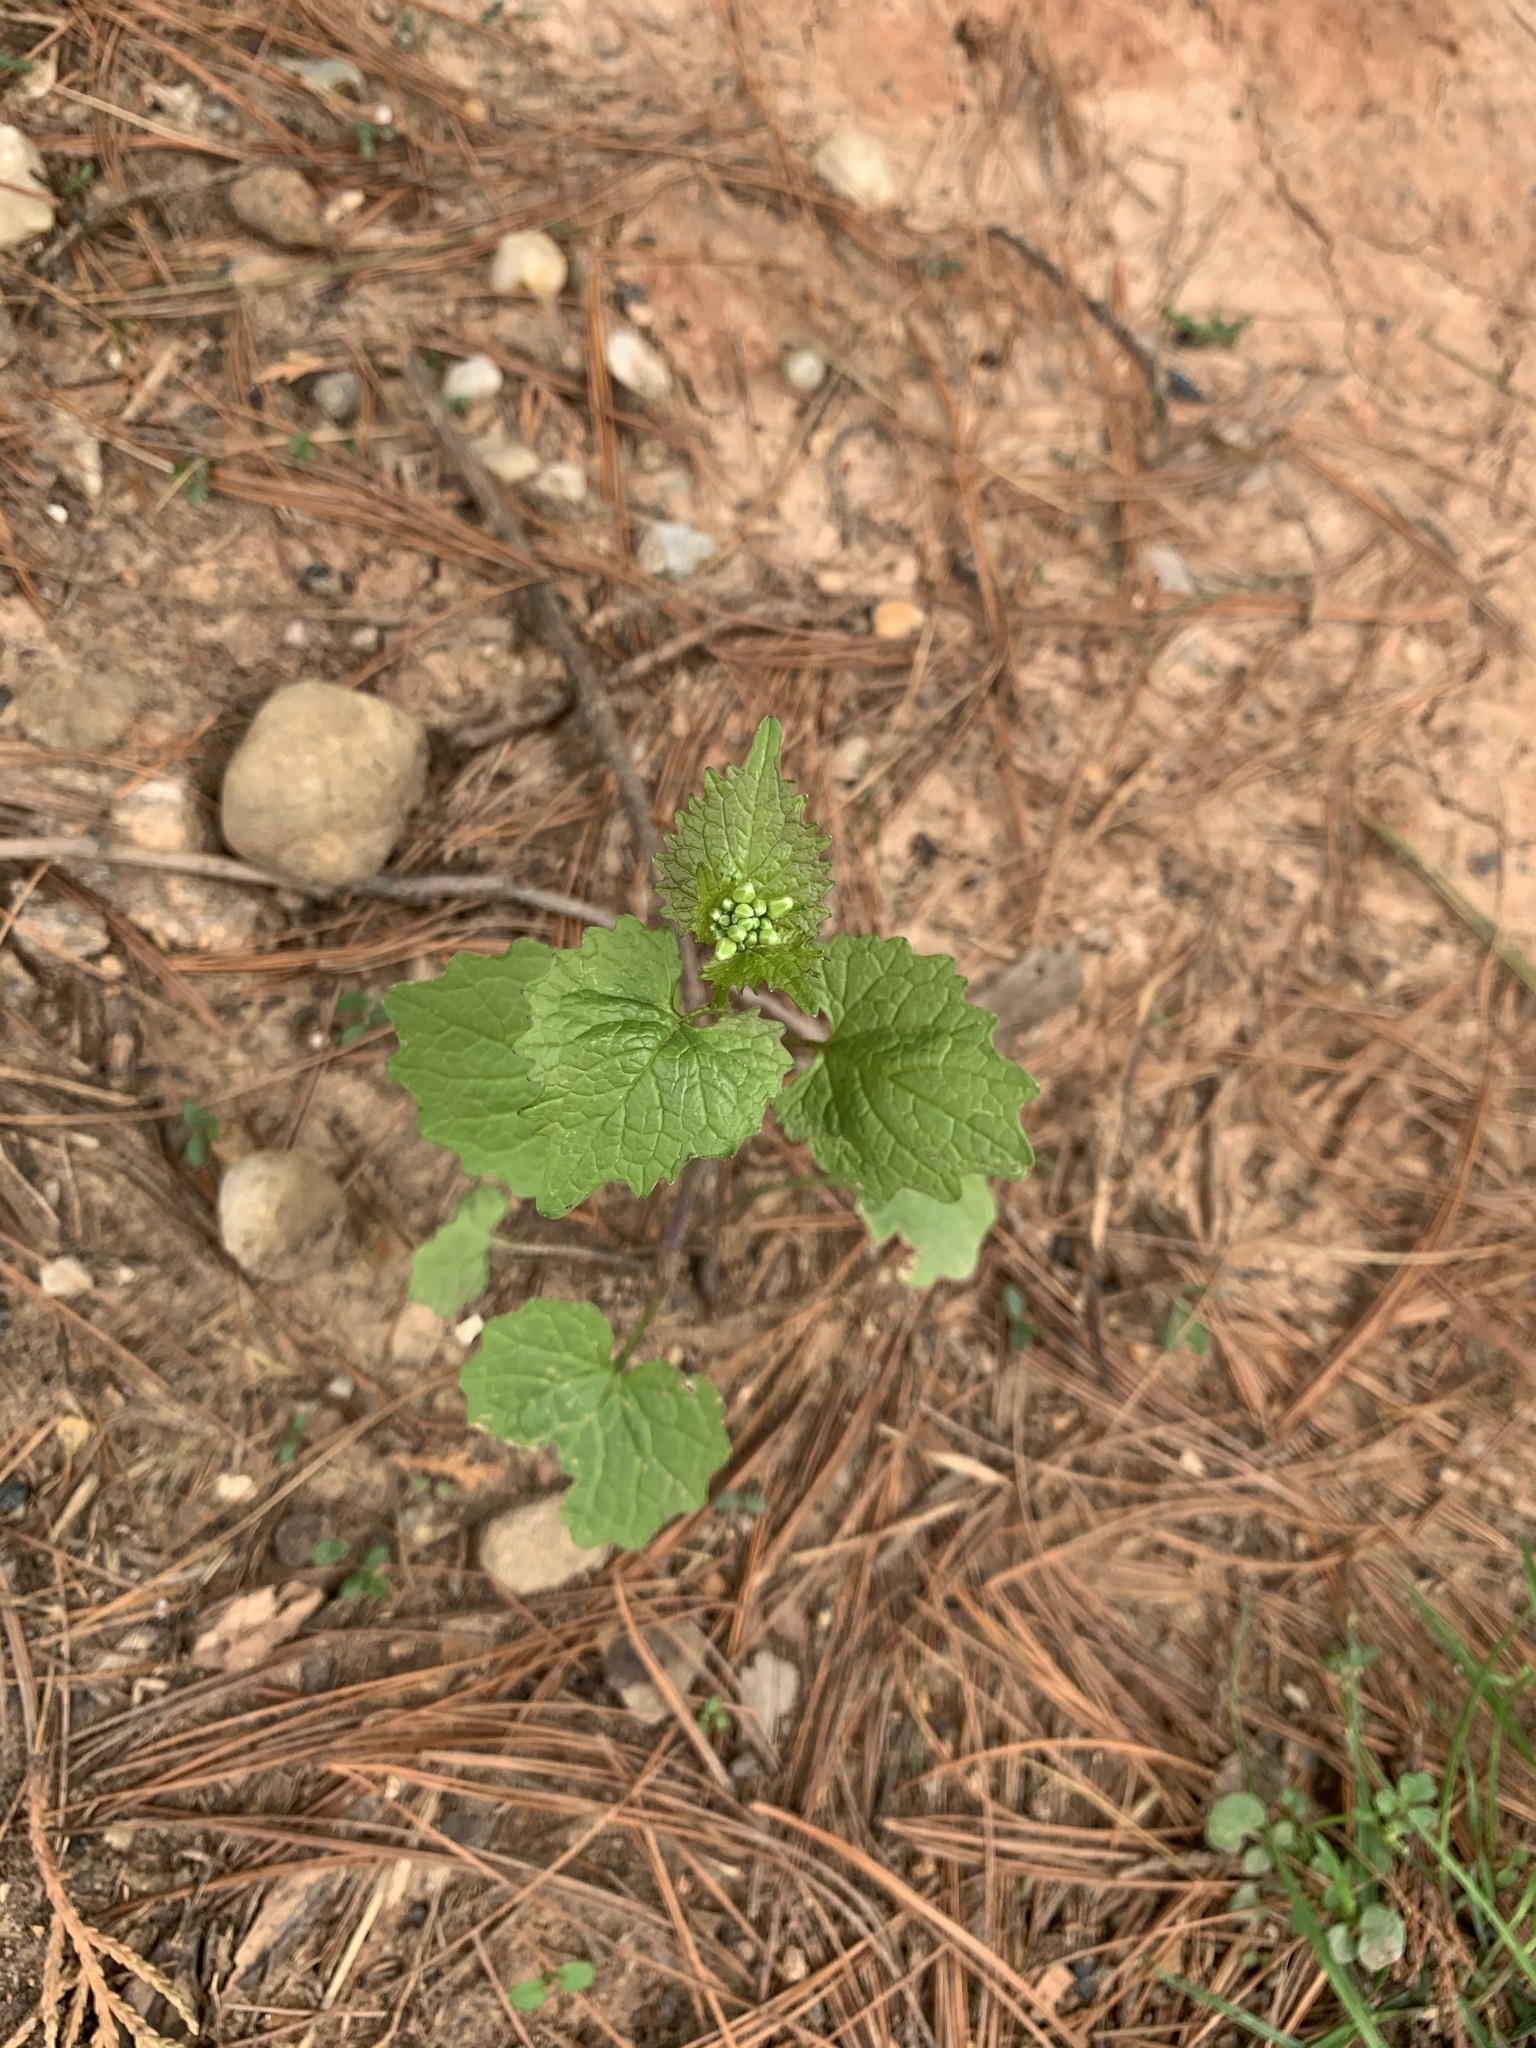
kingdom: Plantae
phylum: Tracheophyta
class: Magnoliopsida
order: Brassicales
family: Brassicaceae
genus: Alliaria
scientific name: Alliaria petiolata
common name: Garlic mustard
